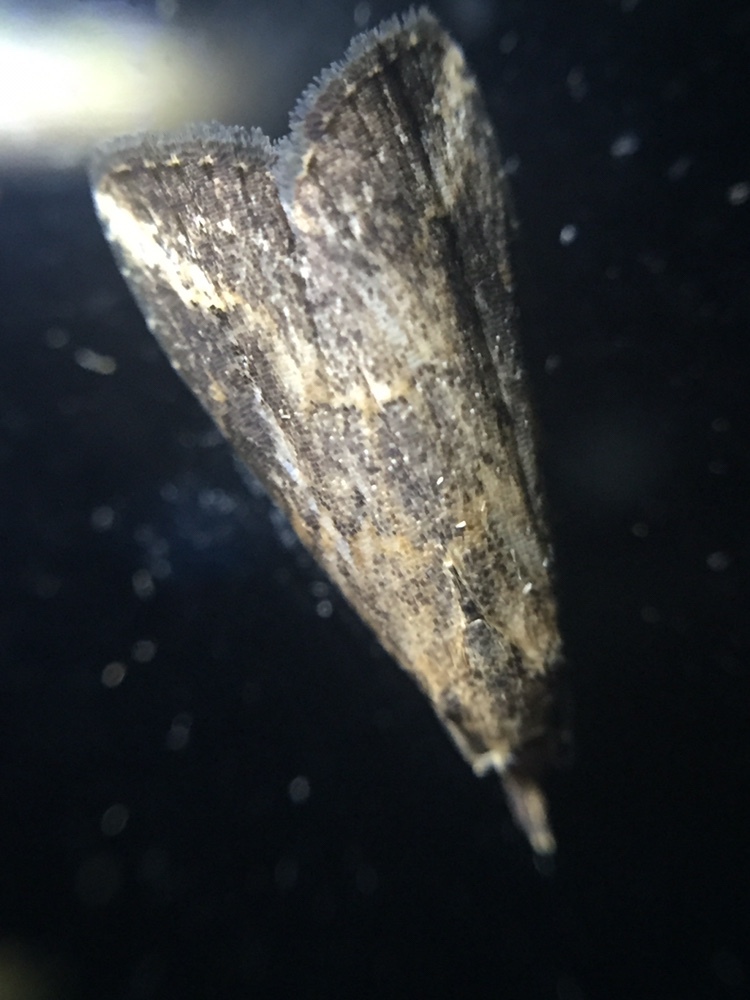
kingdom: Animalia
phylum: Arthropoda
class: Insecta
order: Lepidoptera
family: Erebidae
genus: Schrankia
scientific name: Schrankia costaestrigalis
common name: Pinion-streaked snout
